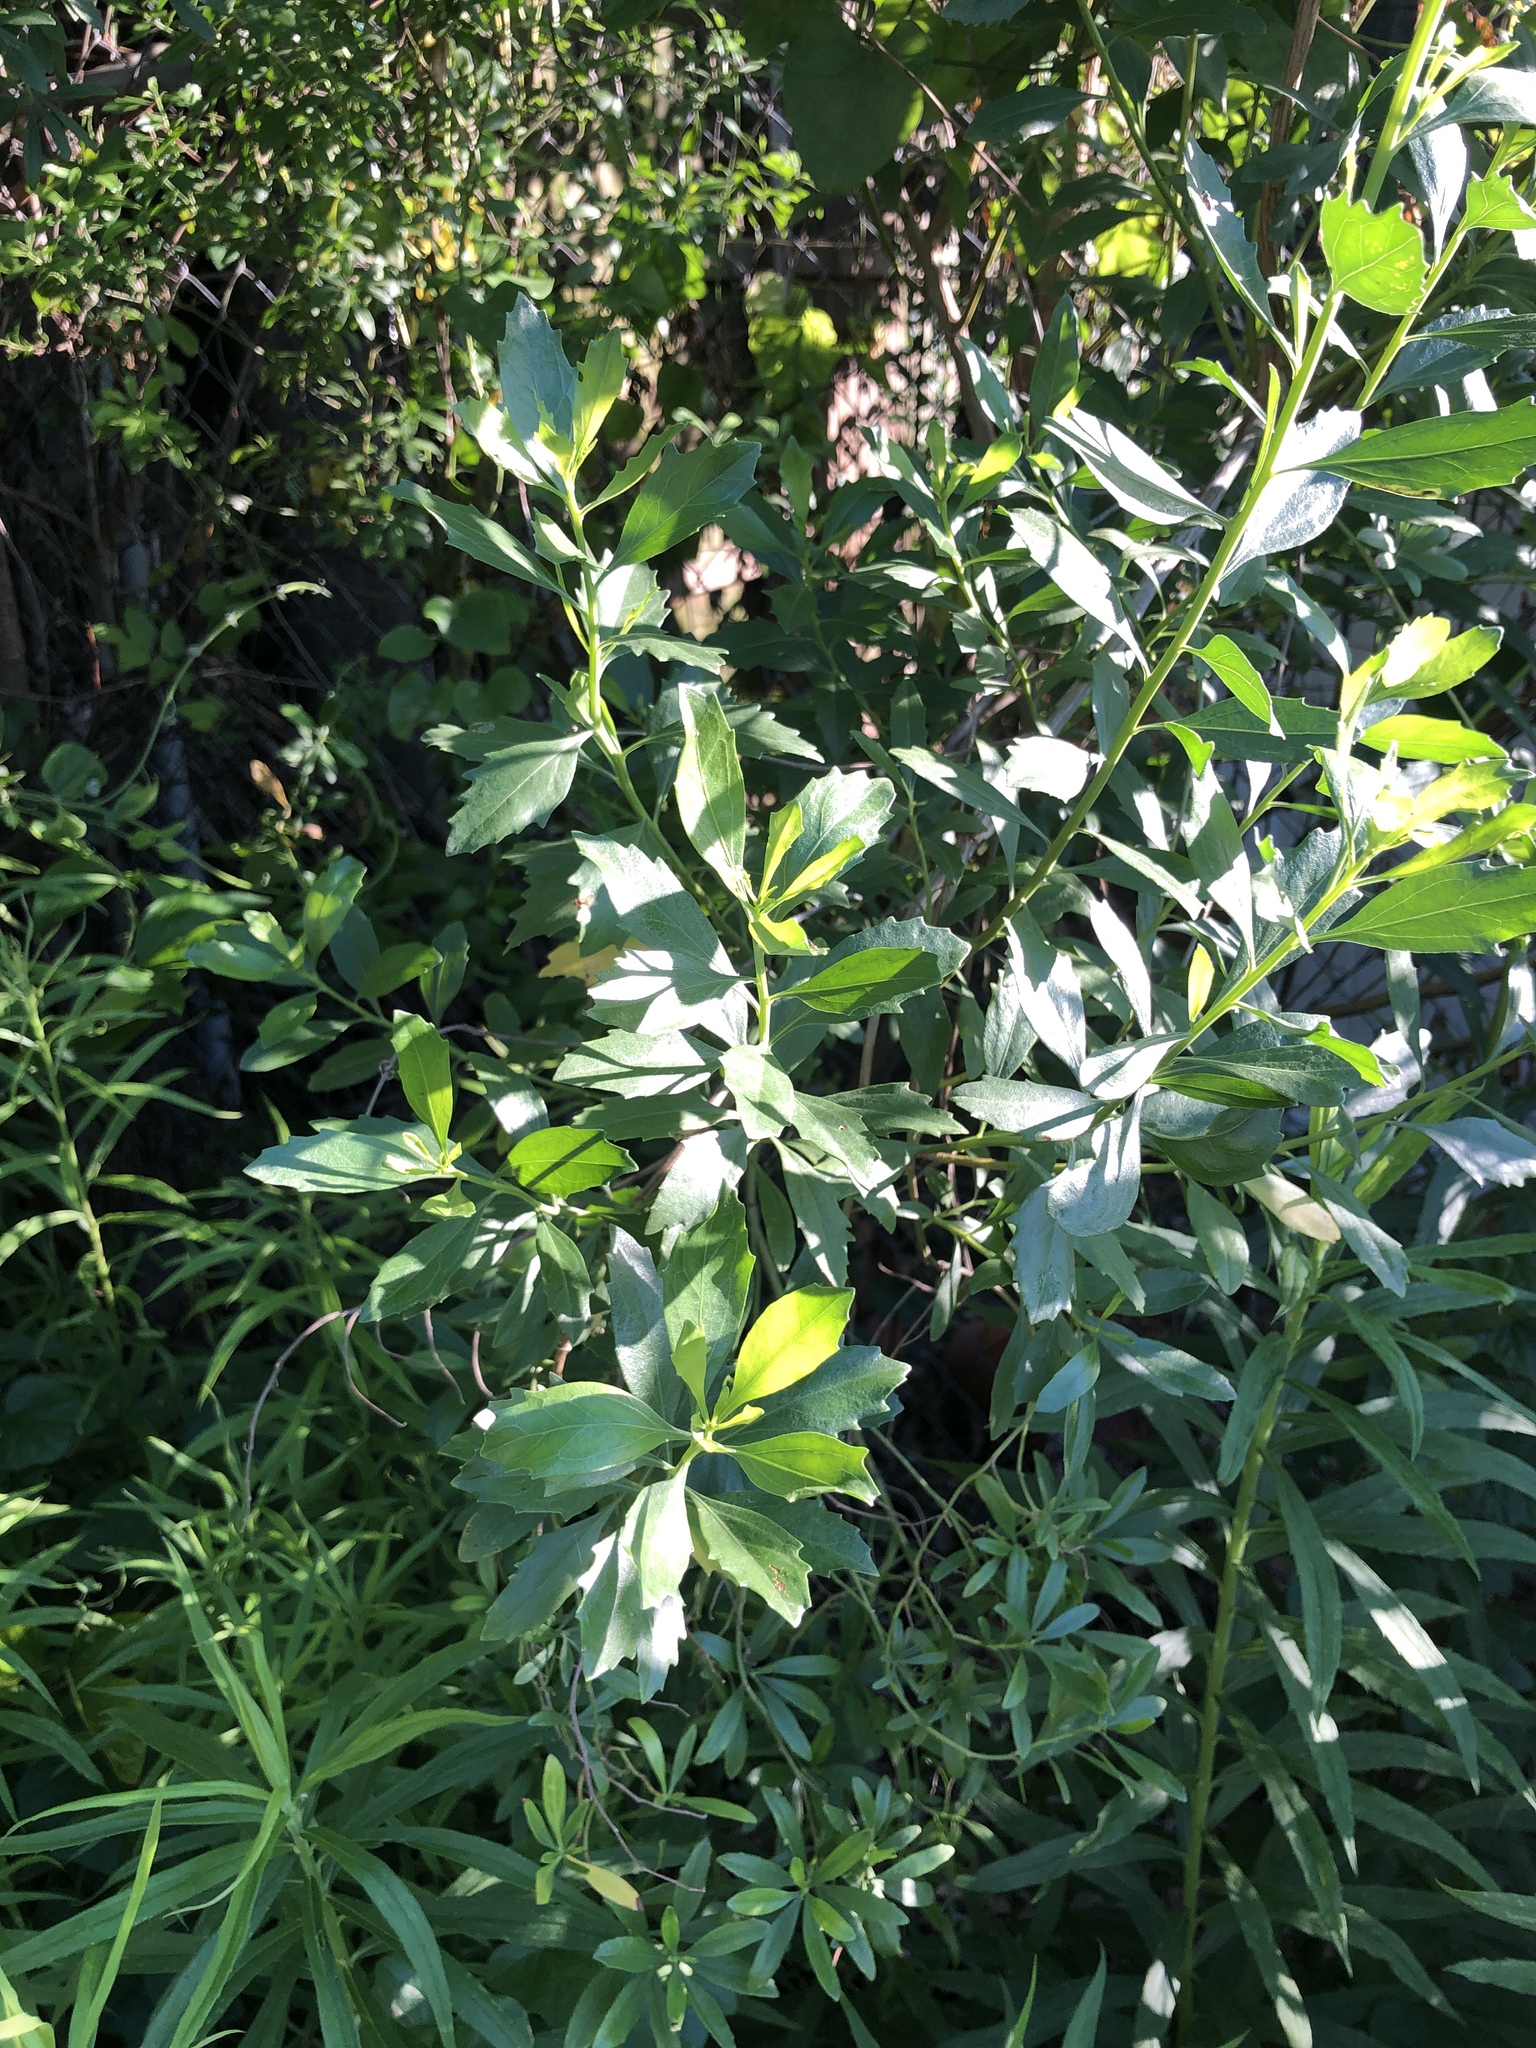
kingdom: Plantae
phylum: Tracheophyta
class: Magnoliopsida
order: Asterales
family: Asteraceae
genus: Baccharis
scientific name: Baccharis halimifolia
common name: Eastern baccharis
